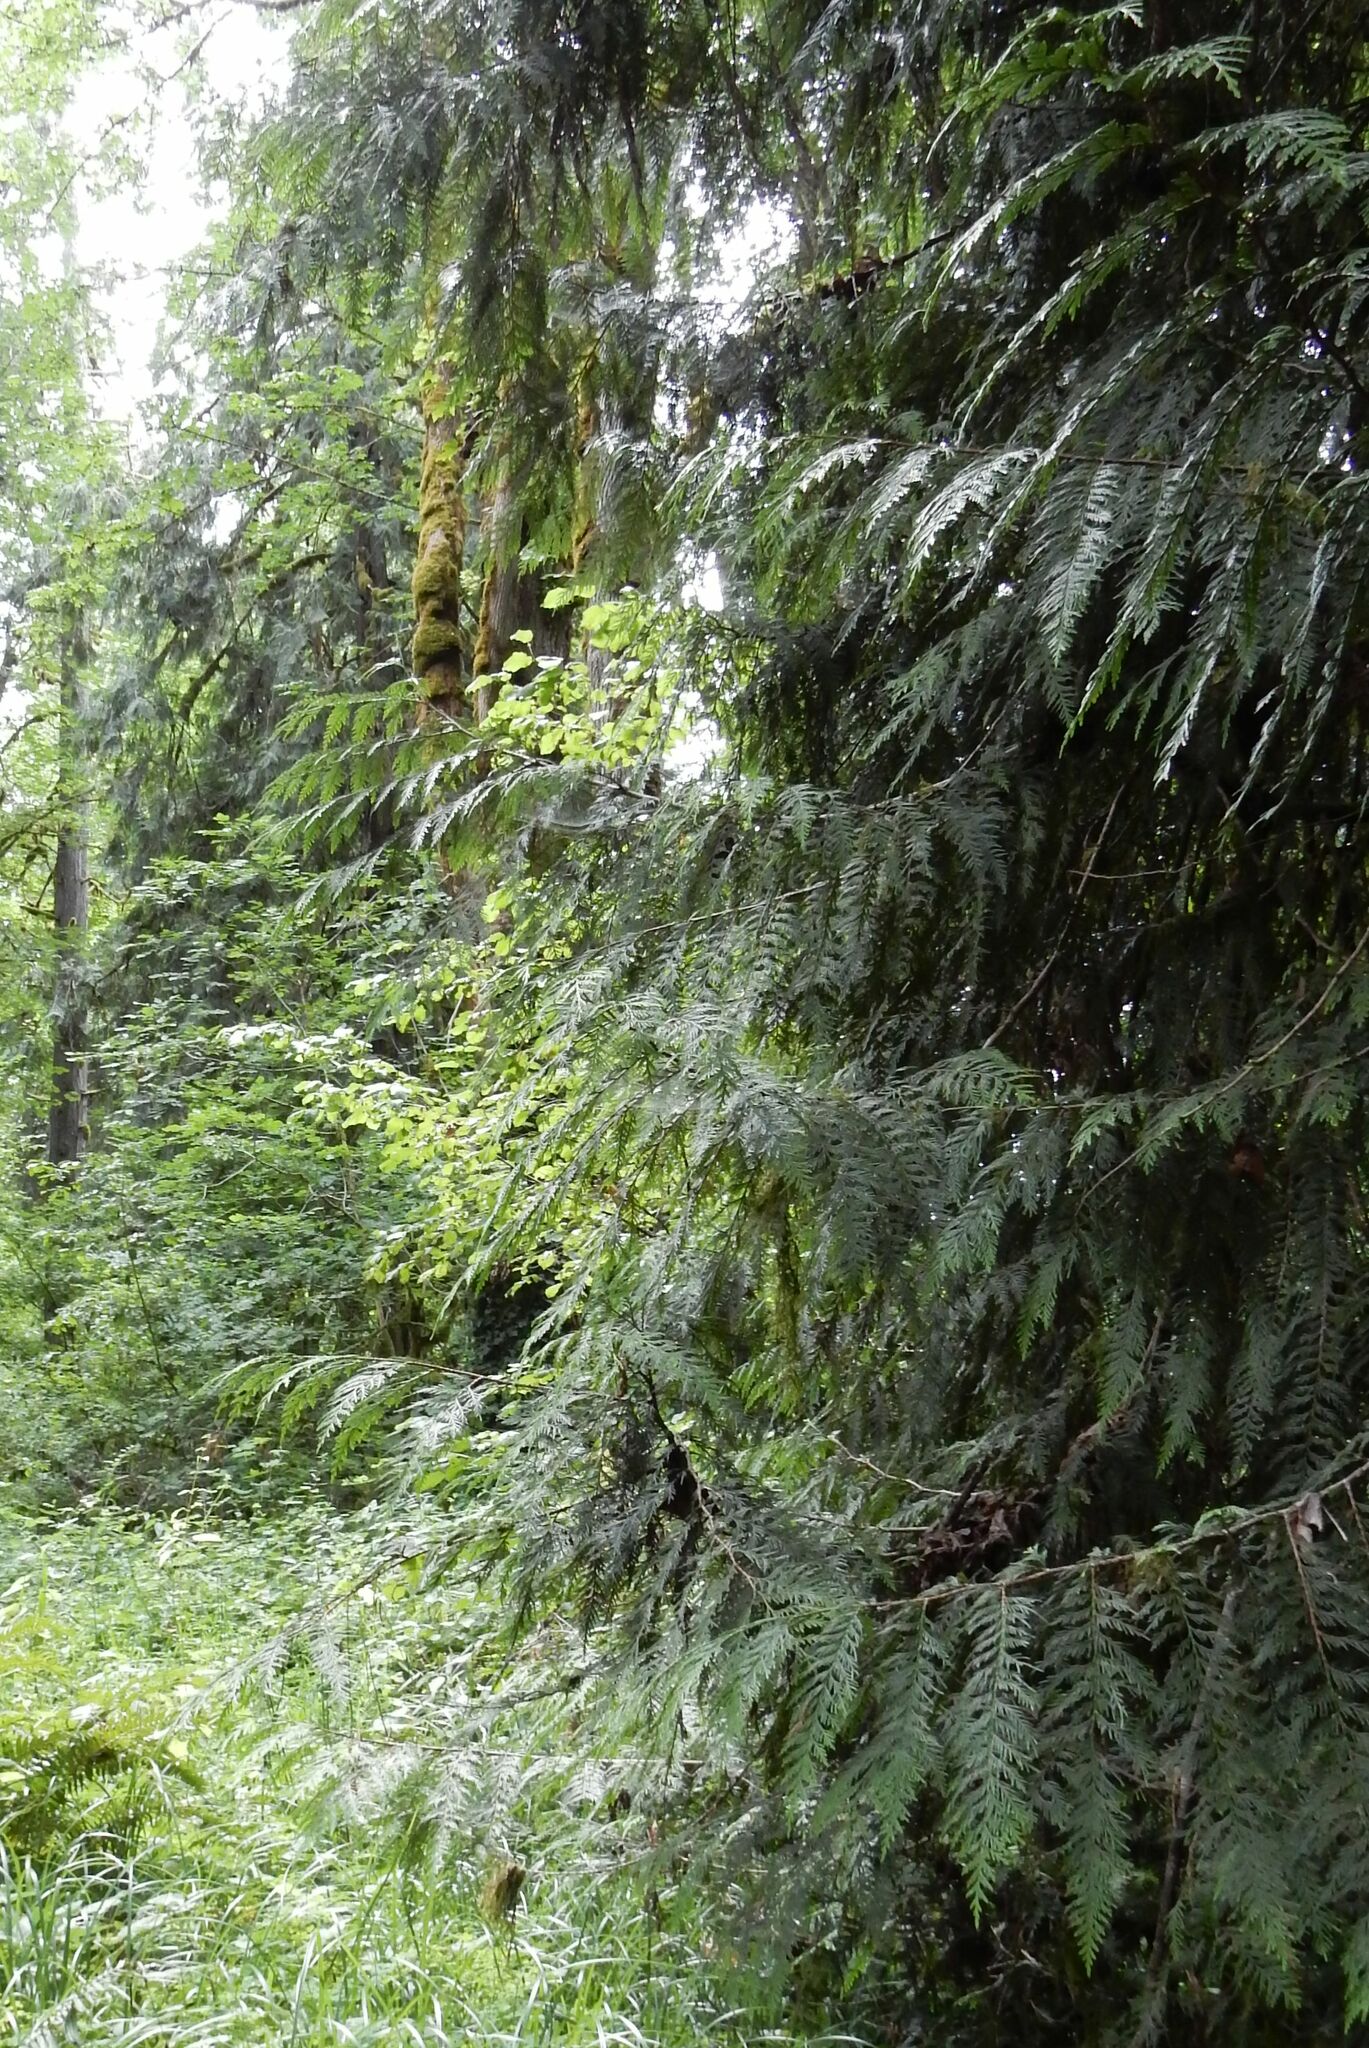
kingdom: Plantae
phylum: Tracheophyta
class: Pinopsida
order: Pinales
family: Cupressaceae
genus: Thuja
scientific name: Thuja plicata
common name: Western red-cedar
